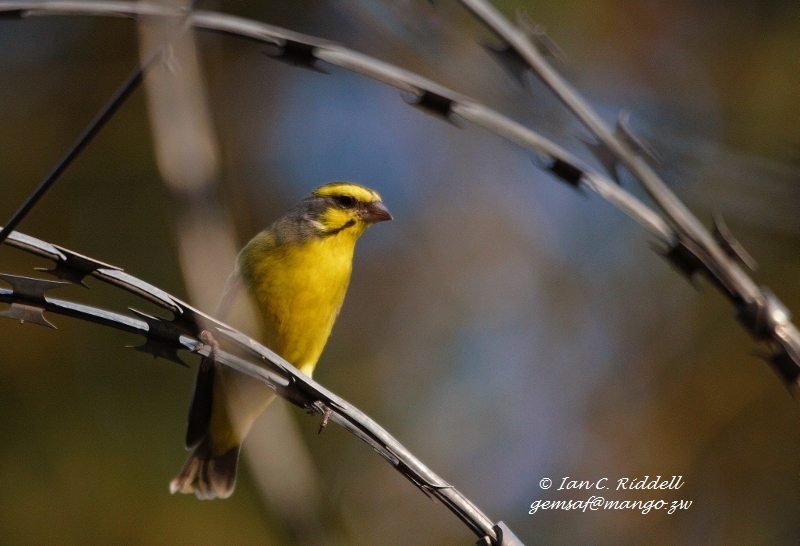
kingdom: Animalia
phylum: Chordata
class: Aves
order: Passeriformes
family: Fringillidae
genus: Crithagra
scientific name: Crithagra mozambica
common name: Yellow-fronted canary
